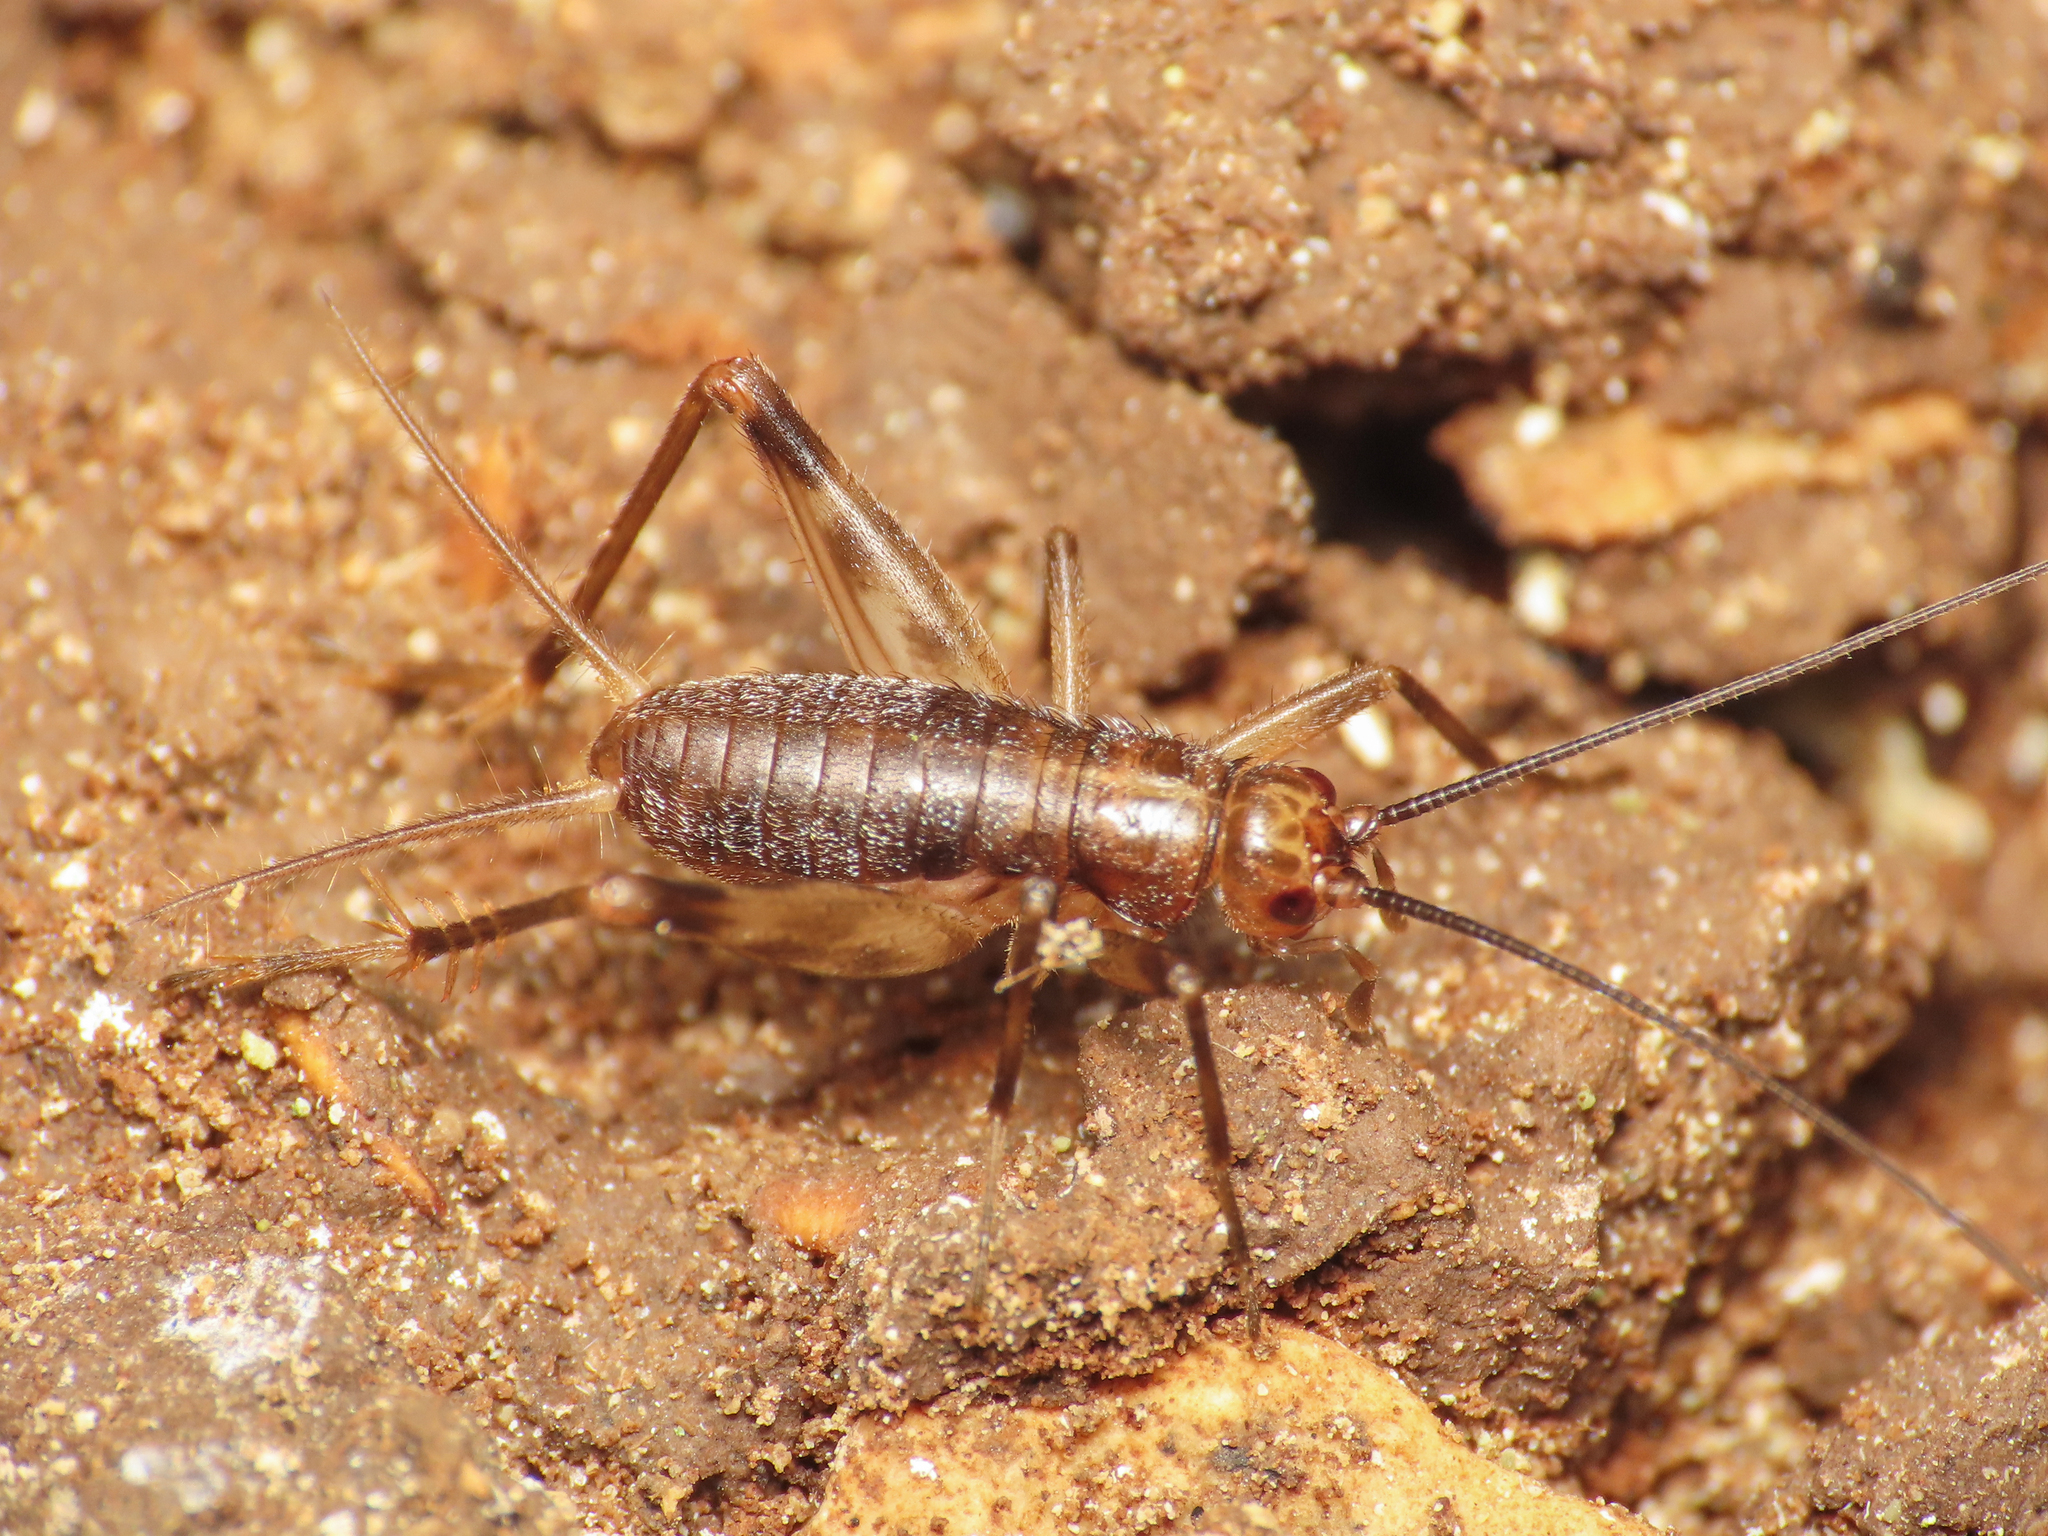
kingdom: Animalia
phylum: Arthropoda
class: Insecta
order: Orthoptera
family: Gryllidae
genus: Petaloptila
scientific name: Petaloptila andreinii
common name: Italian glandular cricket
